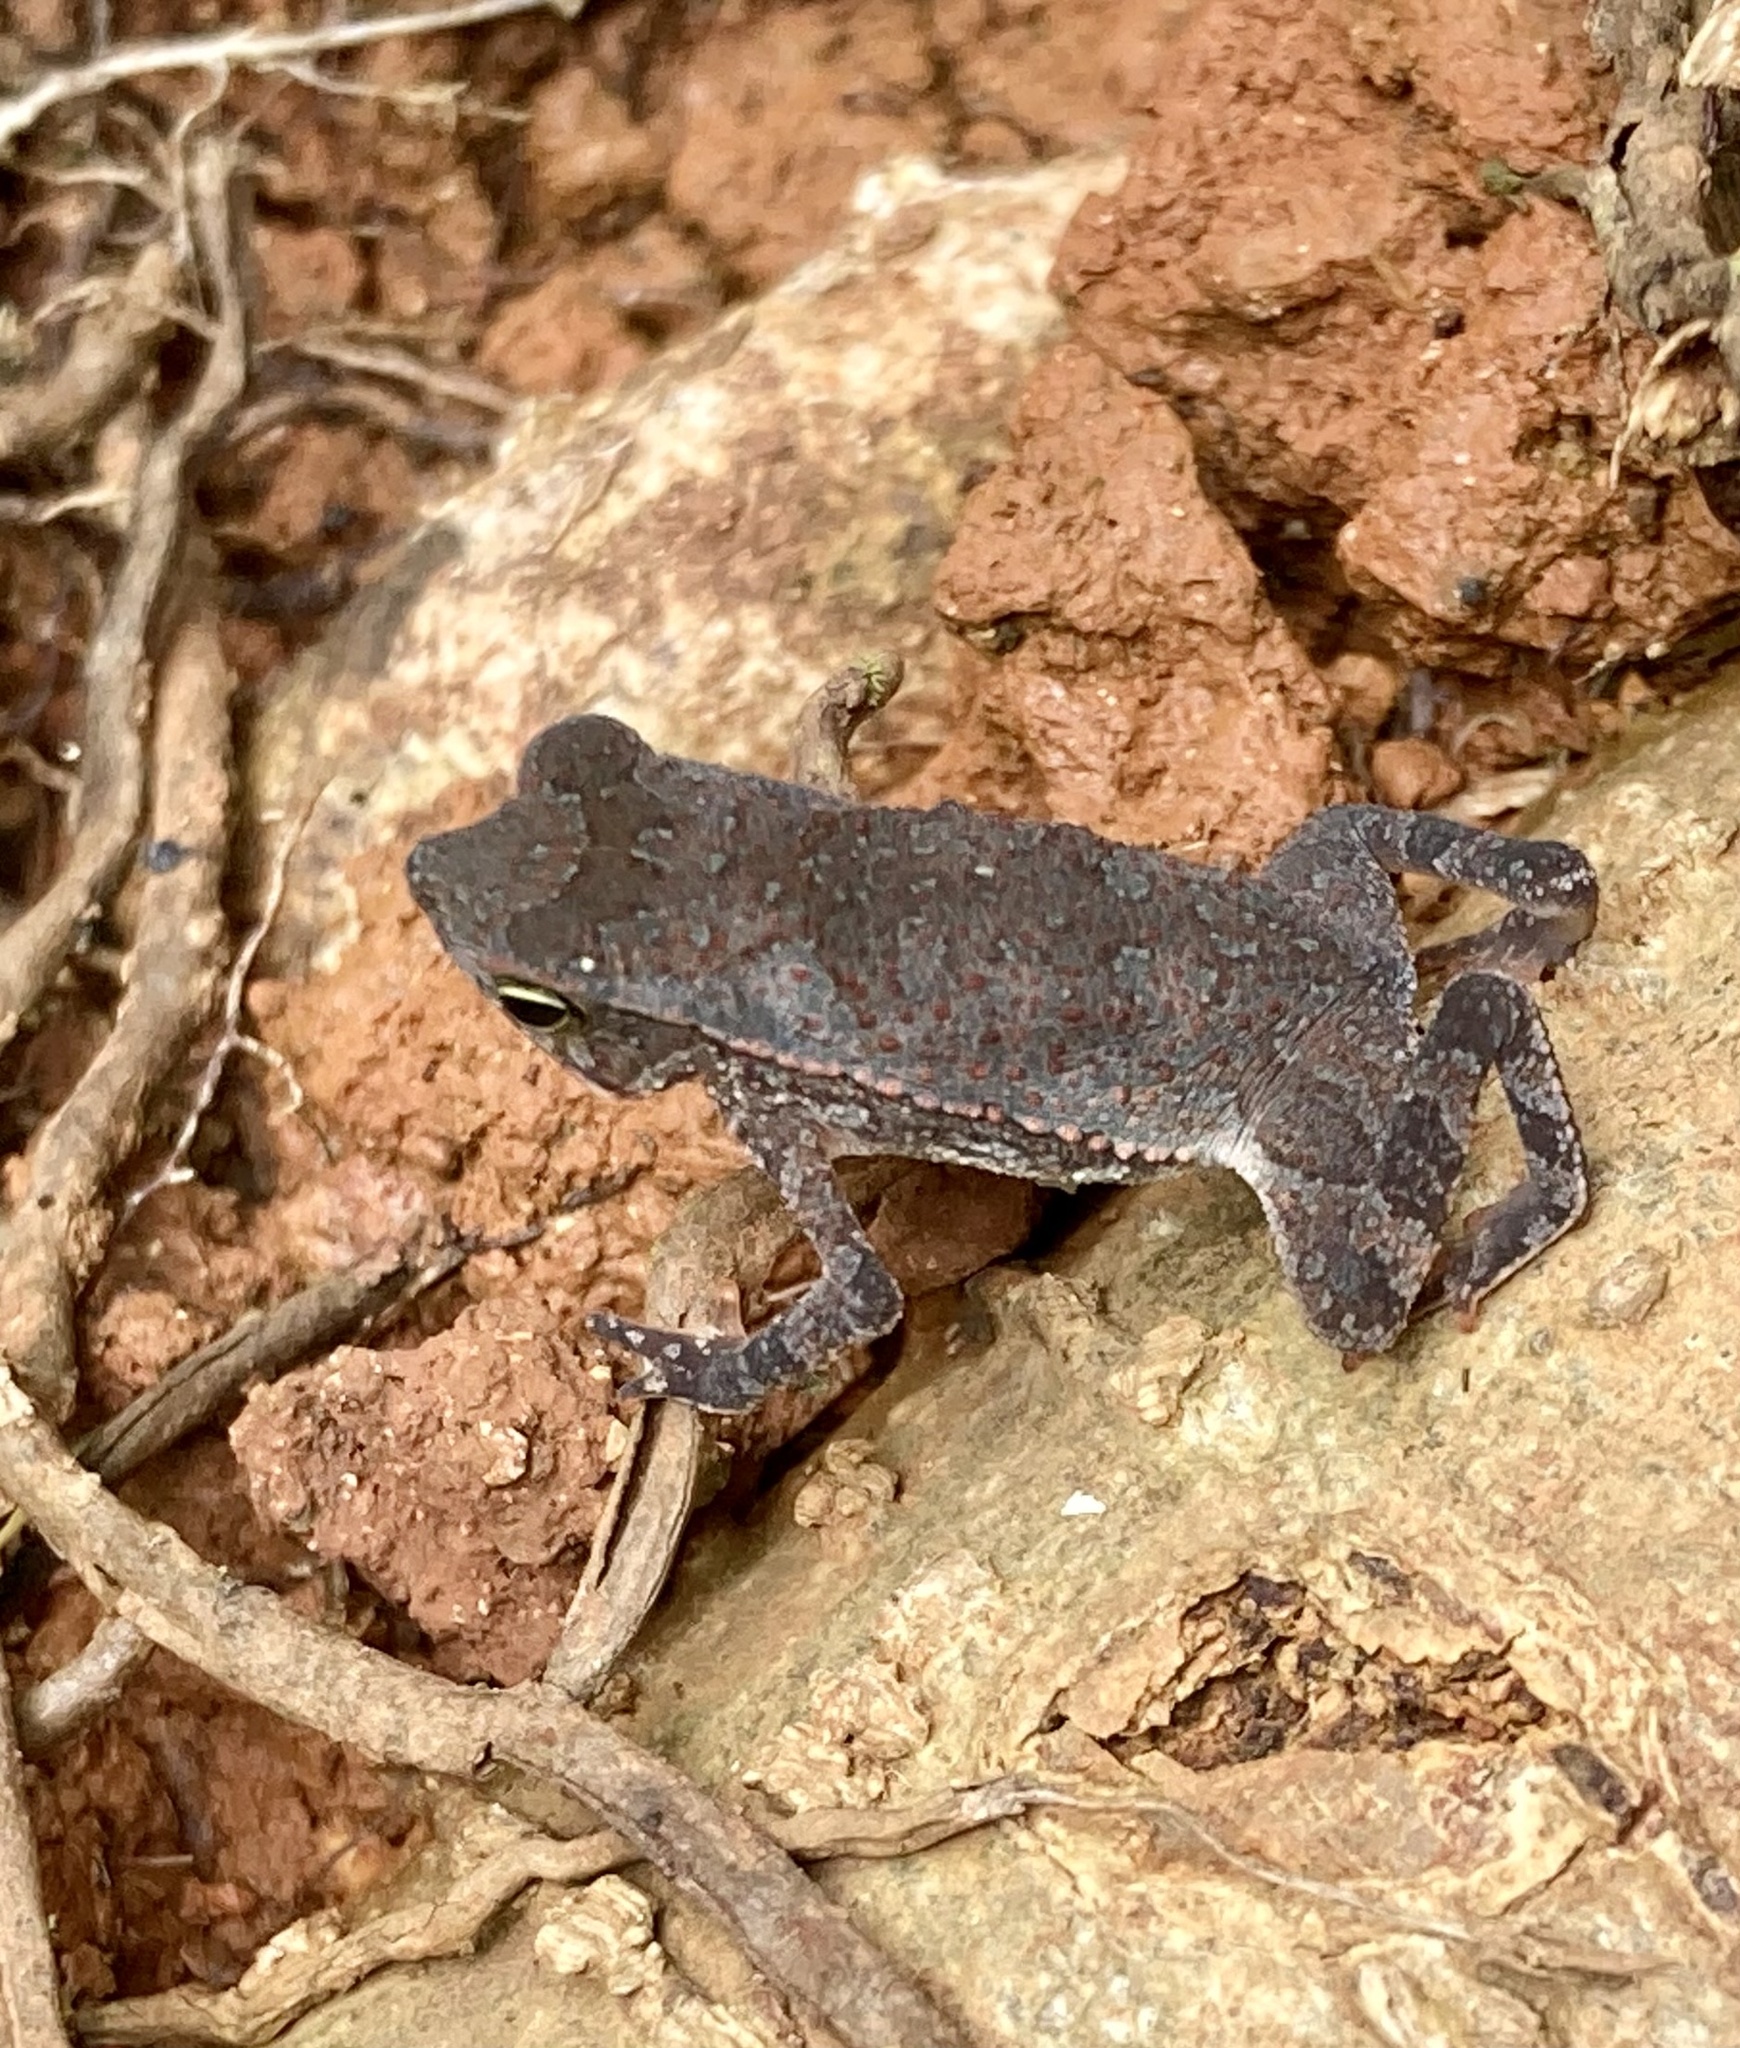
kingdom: Animalia
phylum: Chordata
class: Amphibia
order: Anura
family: Bufonidae
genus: Rhinella
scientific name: Rhinella alata
